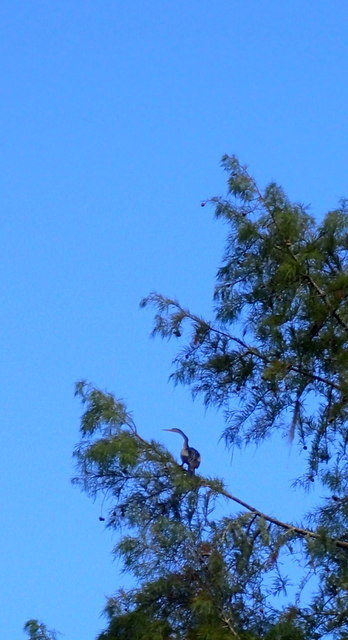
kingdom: Animalia
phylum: Chordata
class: Aves
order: Suliformes
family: Anhingidae
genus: Anhinga
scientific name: Anhinga anhinga
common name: Anhinga
